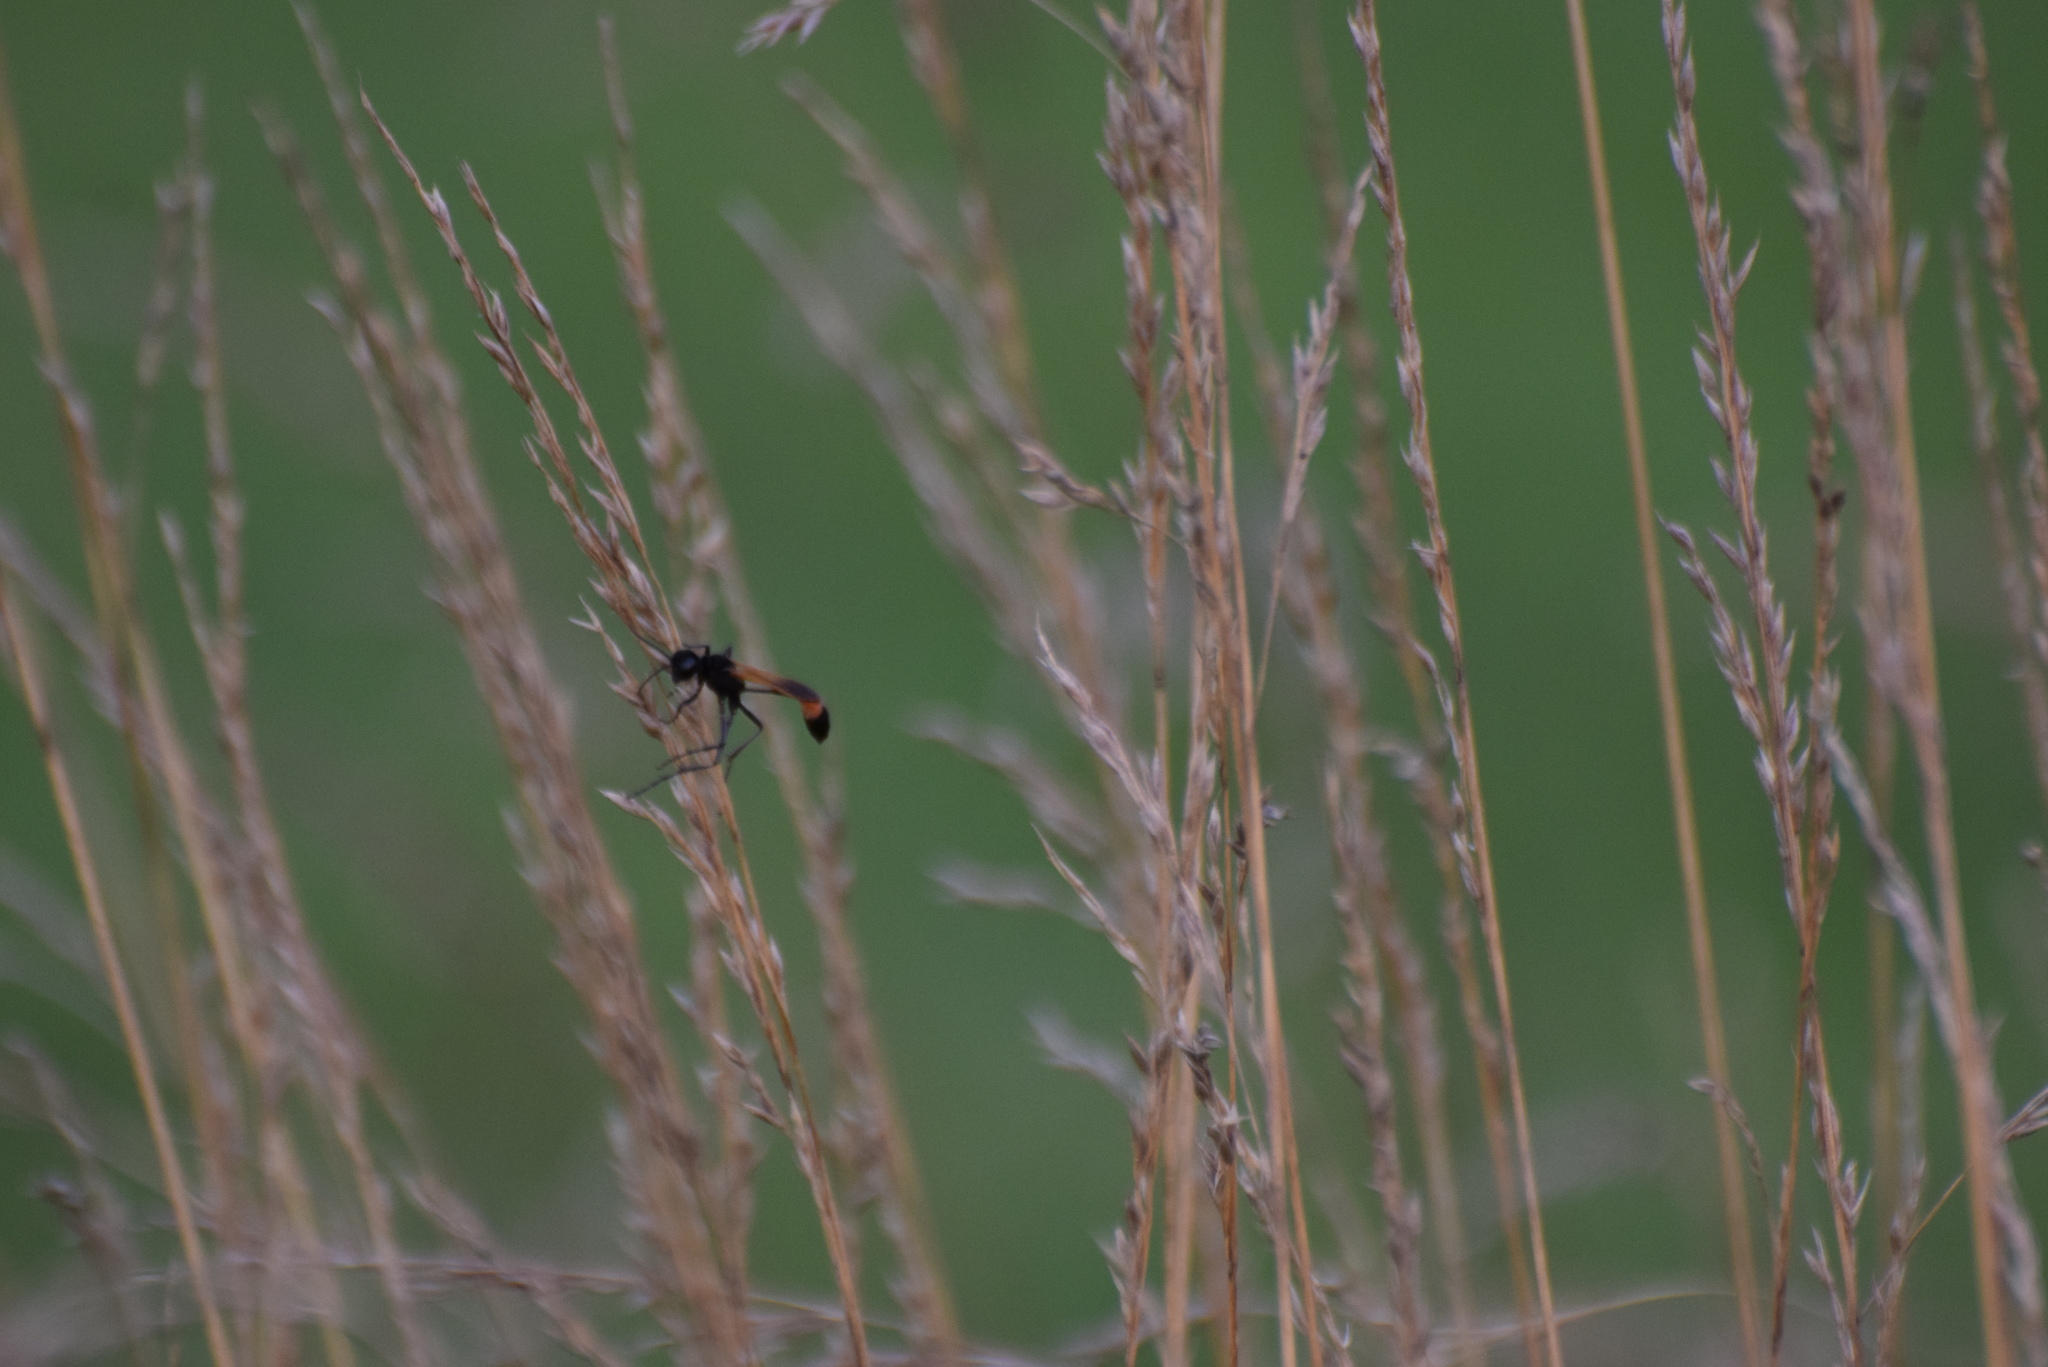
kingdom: Animalia
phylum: Arthropoda
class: Insecta
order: Hymenoptera
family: Sphecidae
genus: Ammophila
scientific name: Ammophila pictipennis
